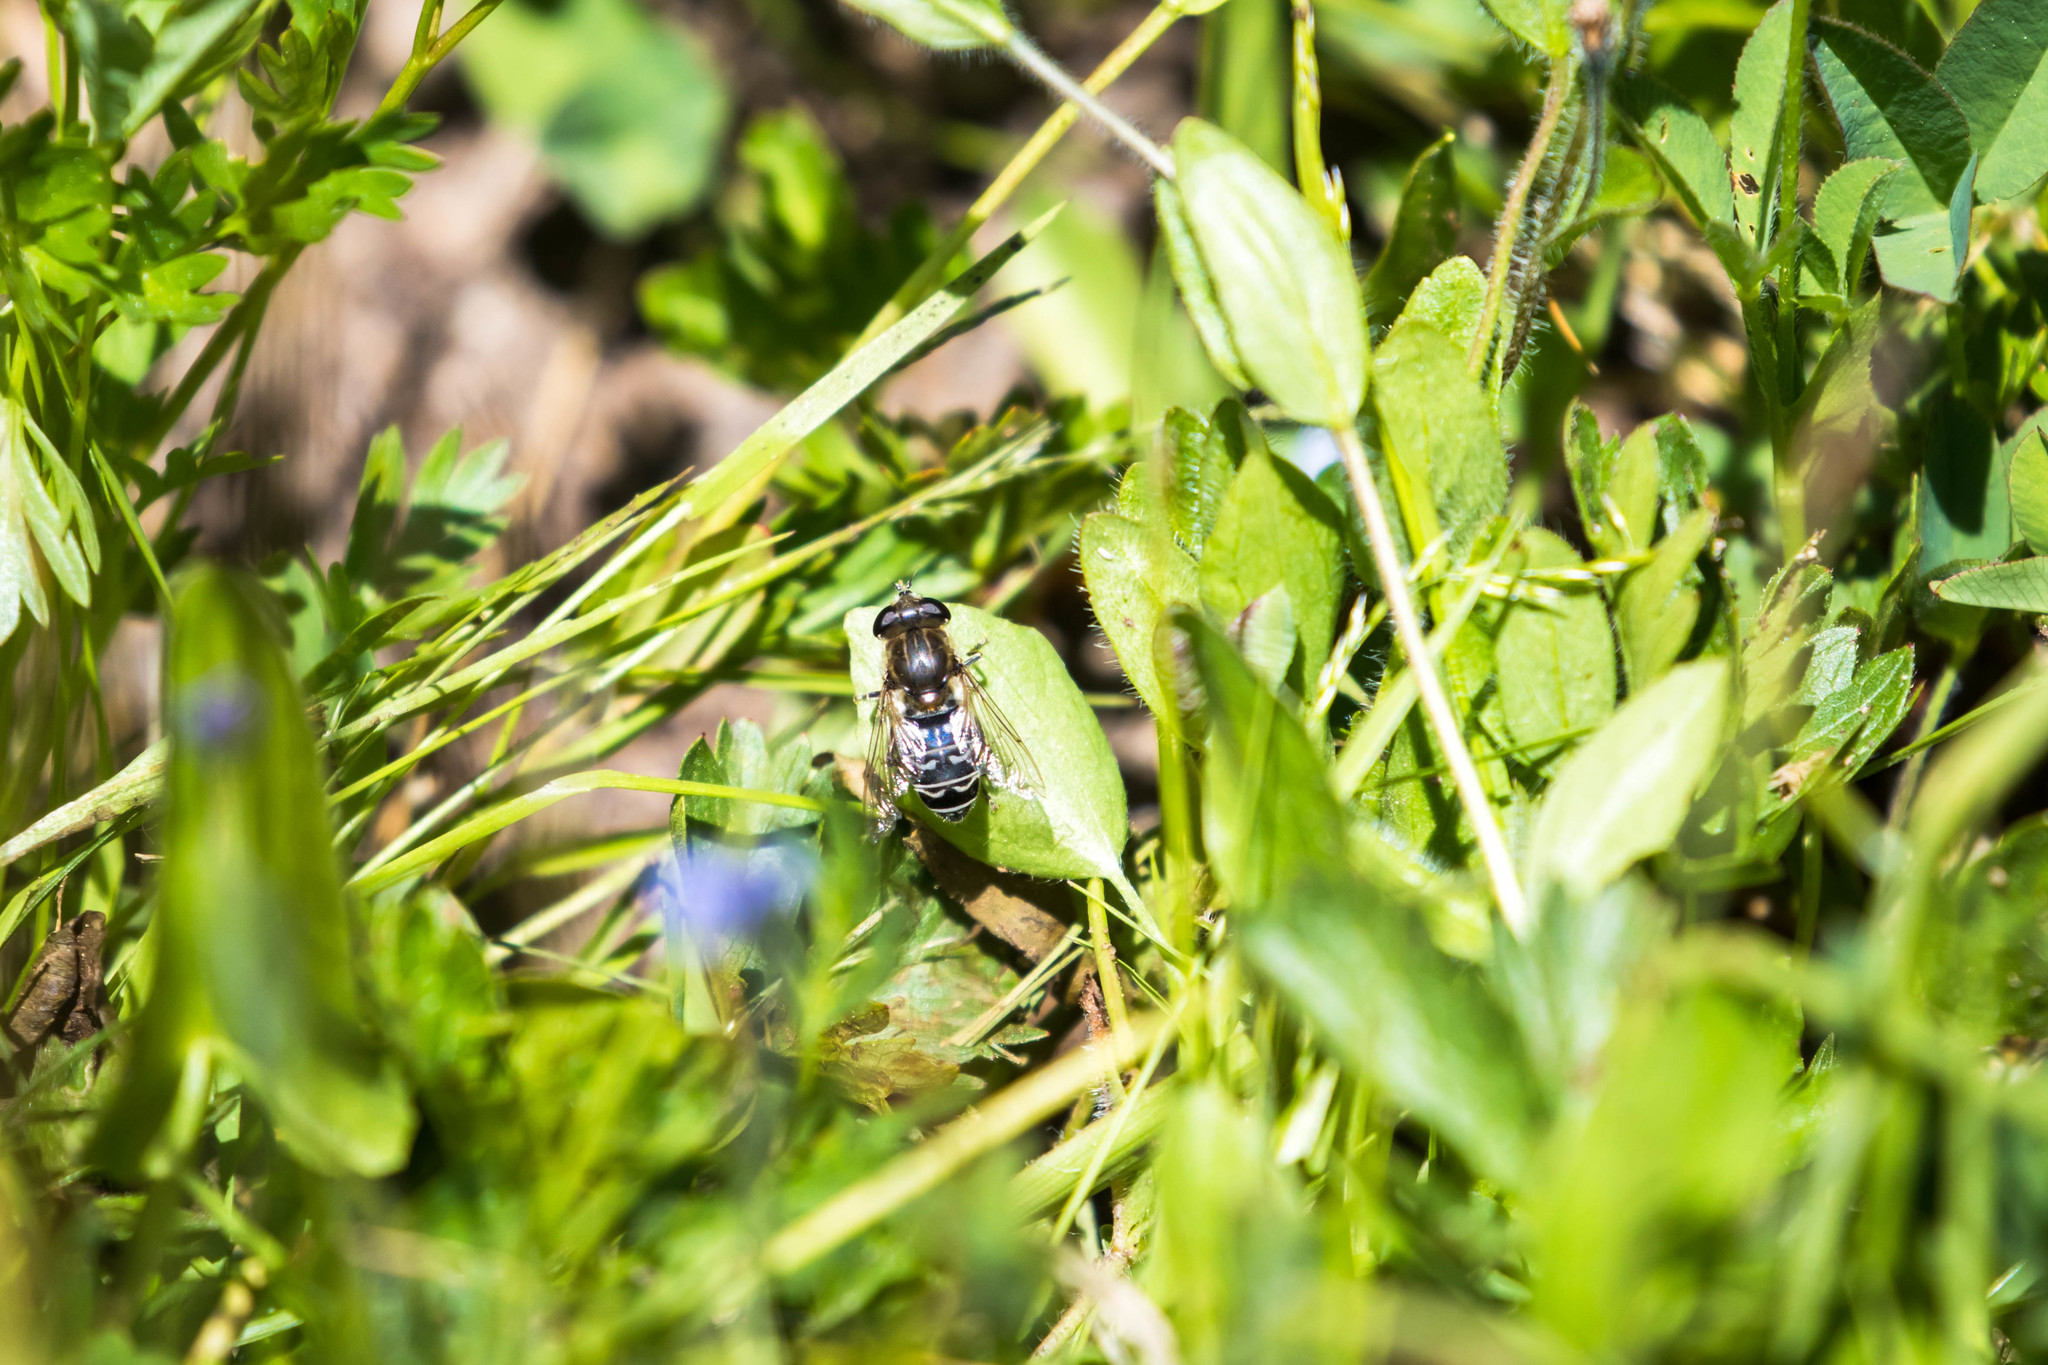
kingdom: Animalia
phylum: Arthropoda
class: Insecta
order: Diptera
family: Syrphidae
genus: Asemosyrphus
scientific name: Asemosyrphus polygrammus
